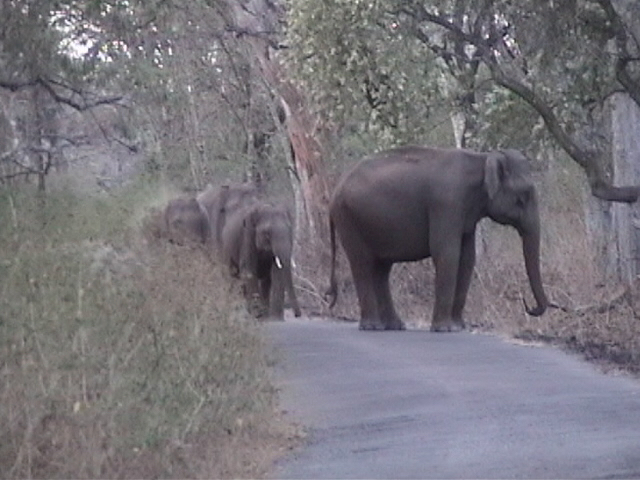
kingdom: Animalia
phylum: Chordata
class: Mammalia
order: Proboscidea
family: Elephantidae
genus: Elephas
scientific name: Elephas maximus
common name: Asian elephant
